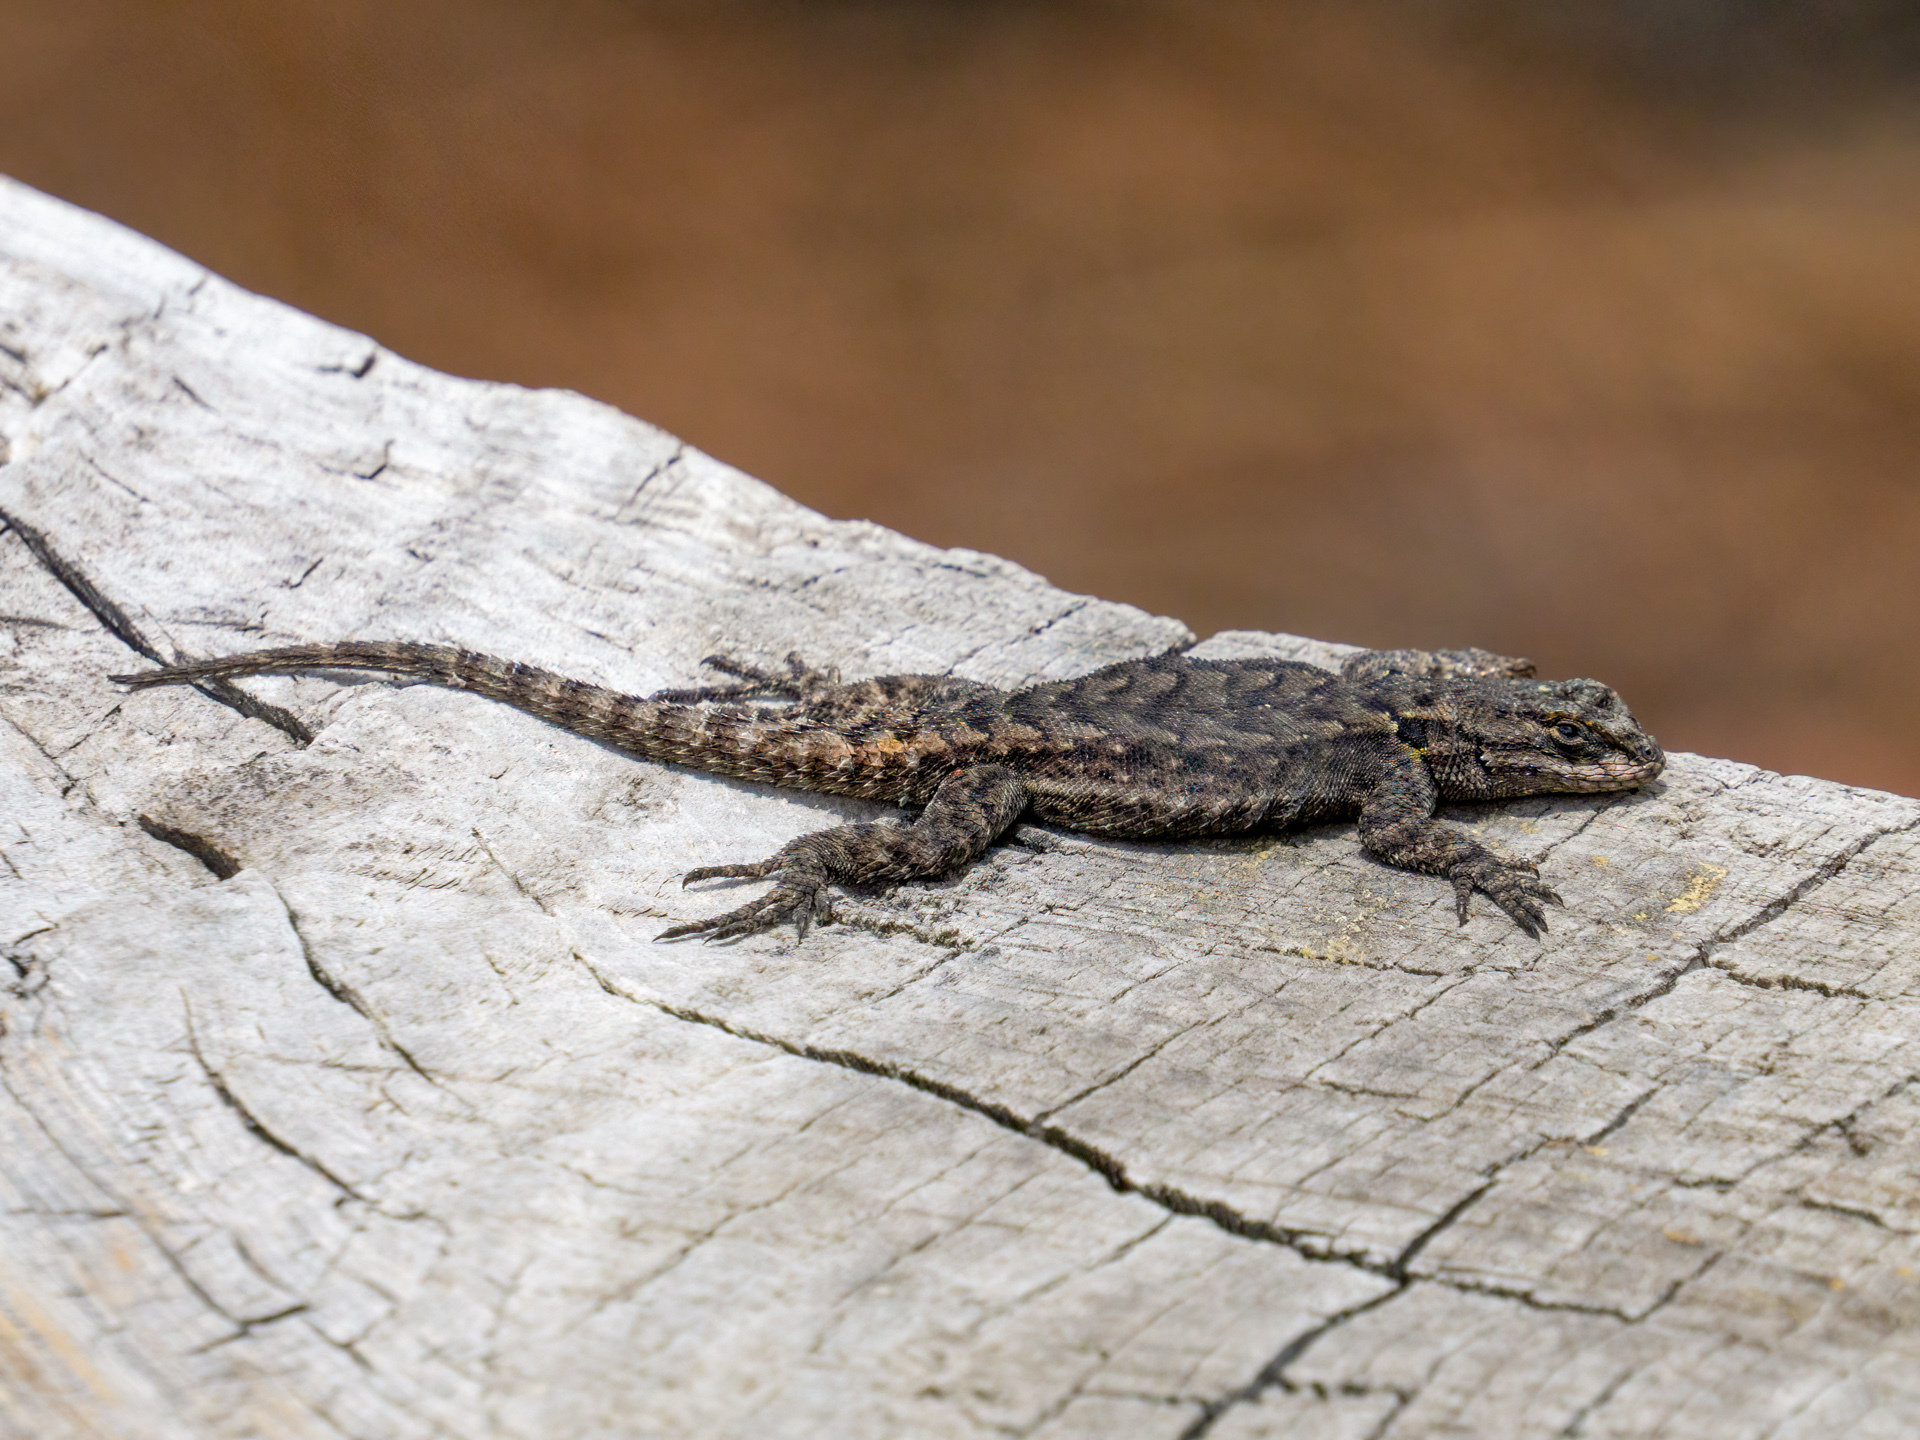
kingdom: Animalia
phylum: Chordata
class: Squamata
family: Phrynosomatidae
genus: Sceloporus
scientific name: Sceloporus anahuacus
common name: Anahuacan bunchgrass lizard
